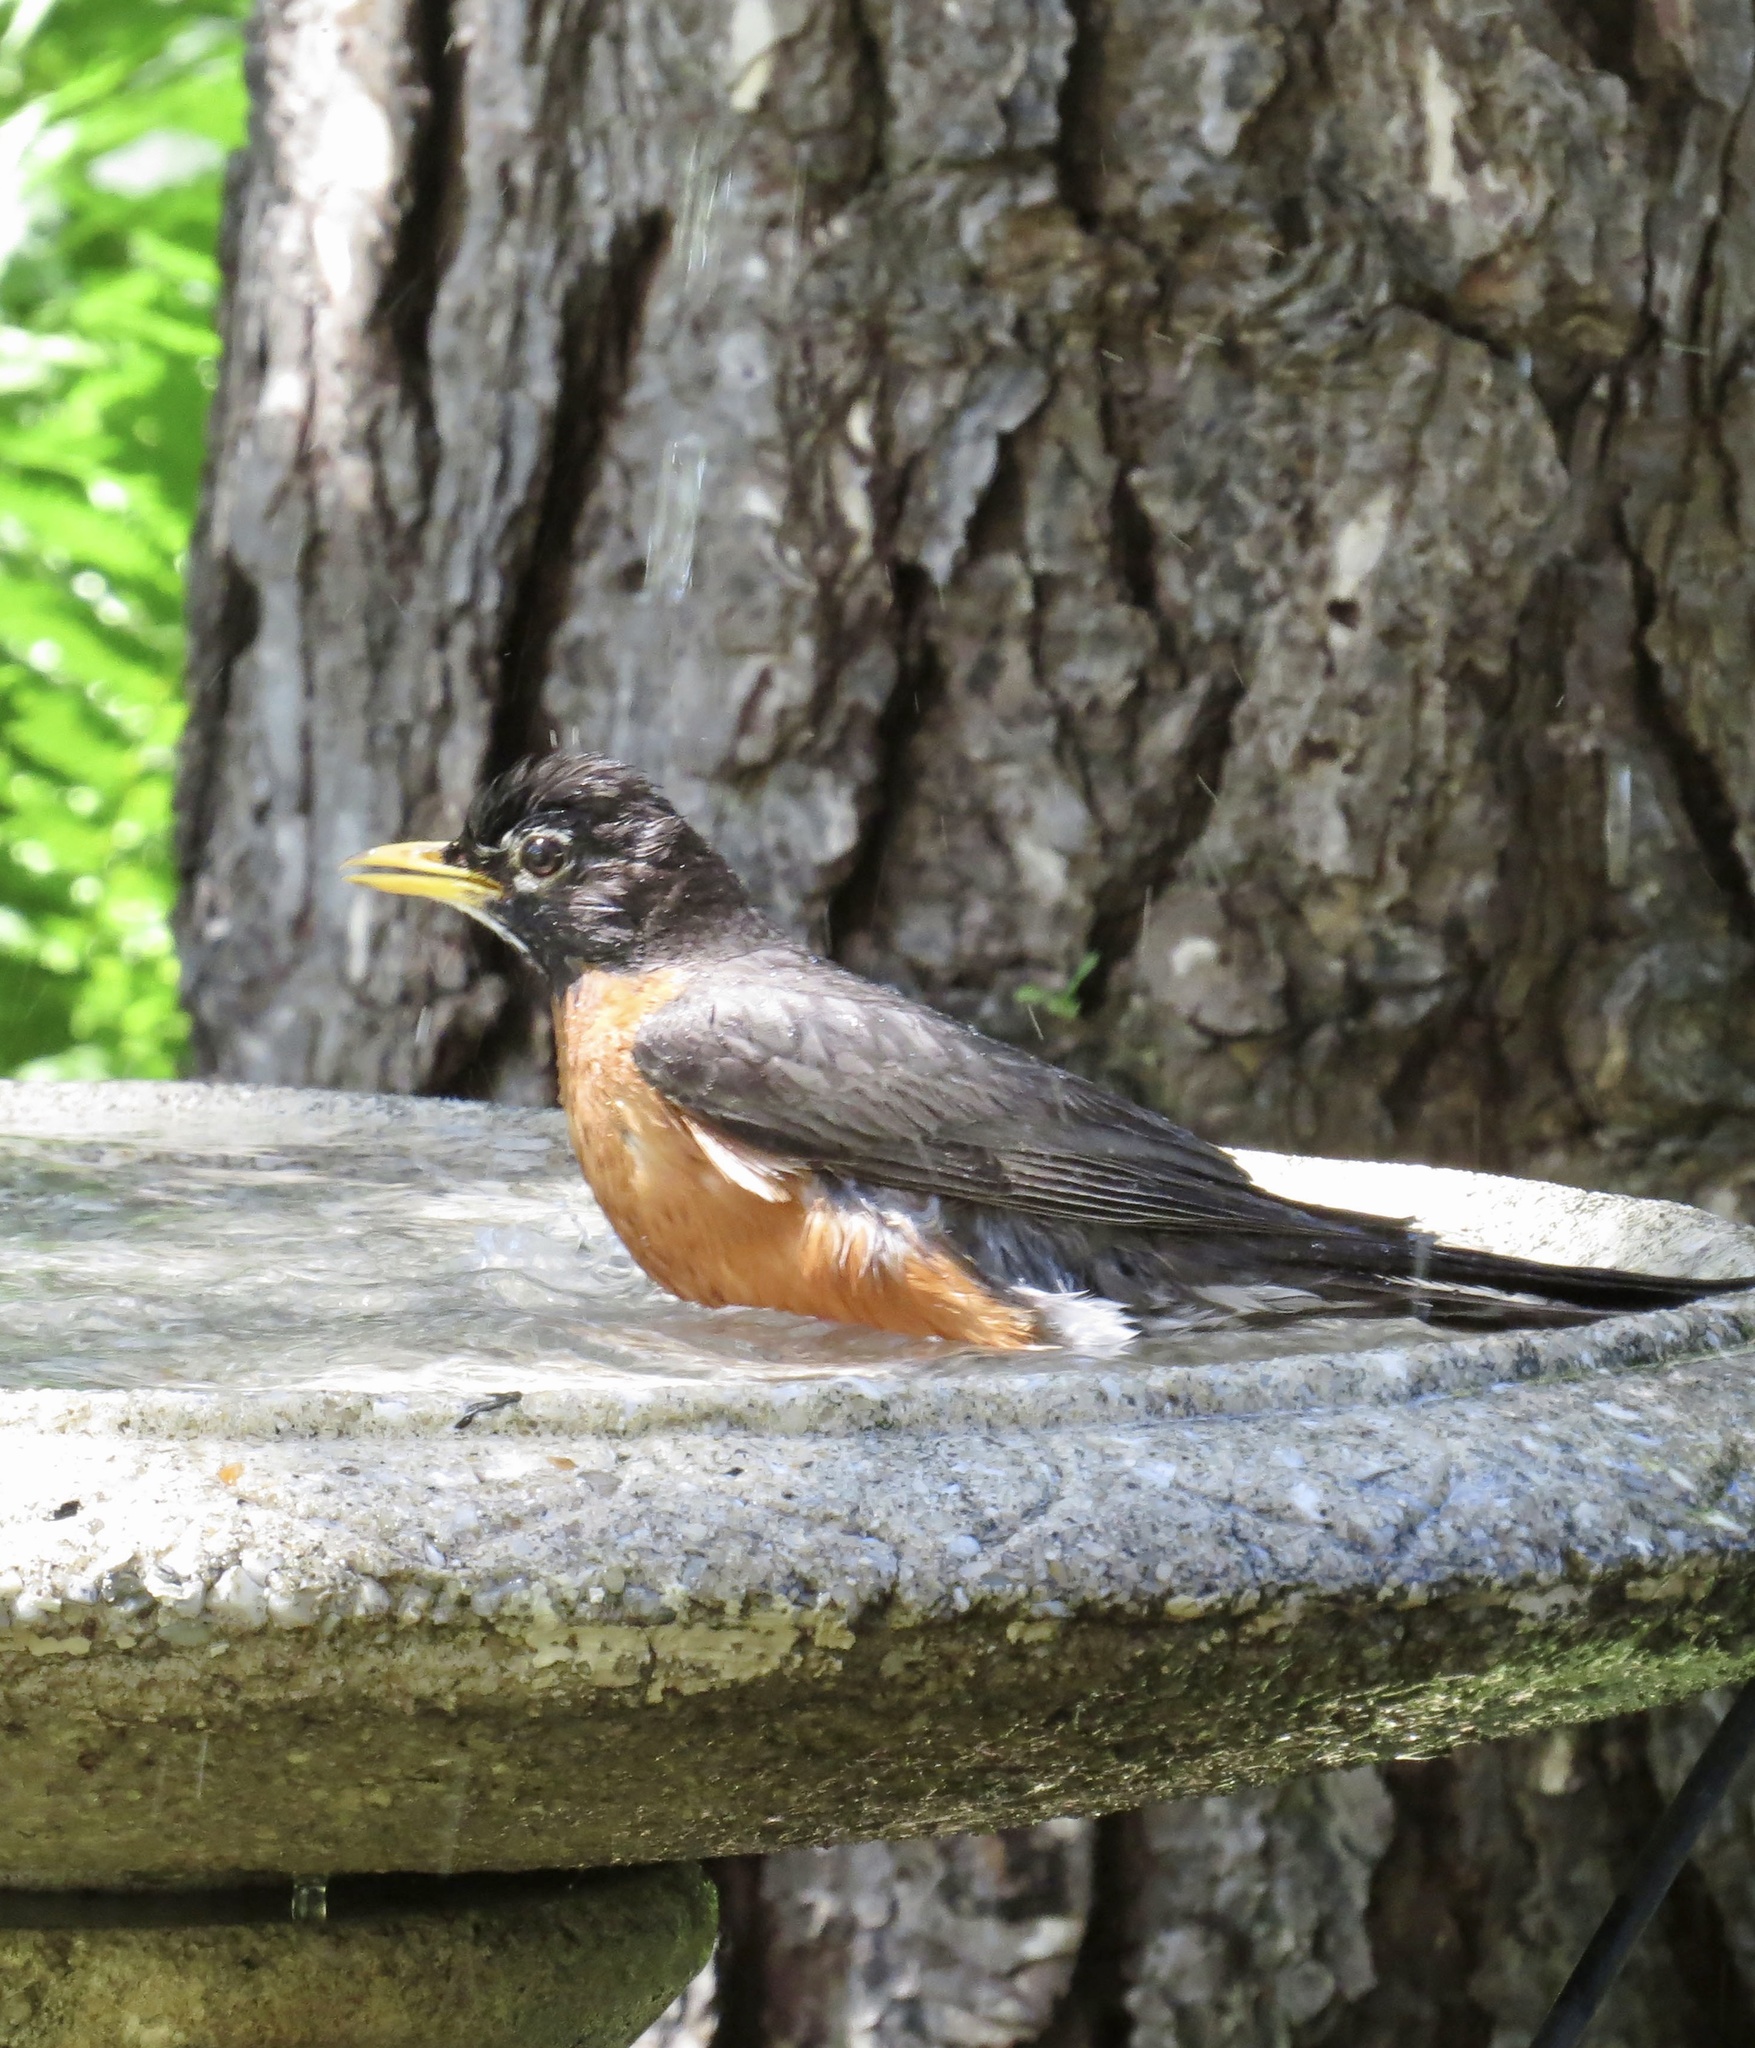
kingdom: Animalia
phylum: Chordata
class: Aves
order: Passeriformes
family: Turdidae
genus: Turdus
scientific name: Turdus migratorius
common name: American robin
